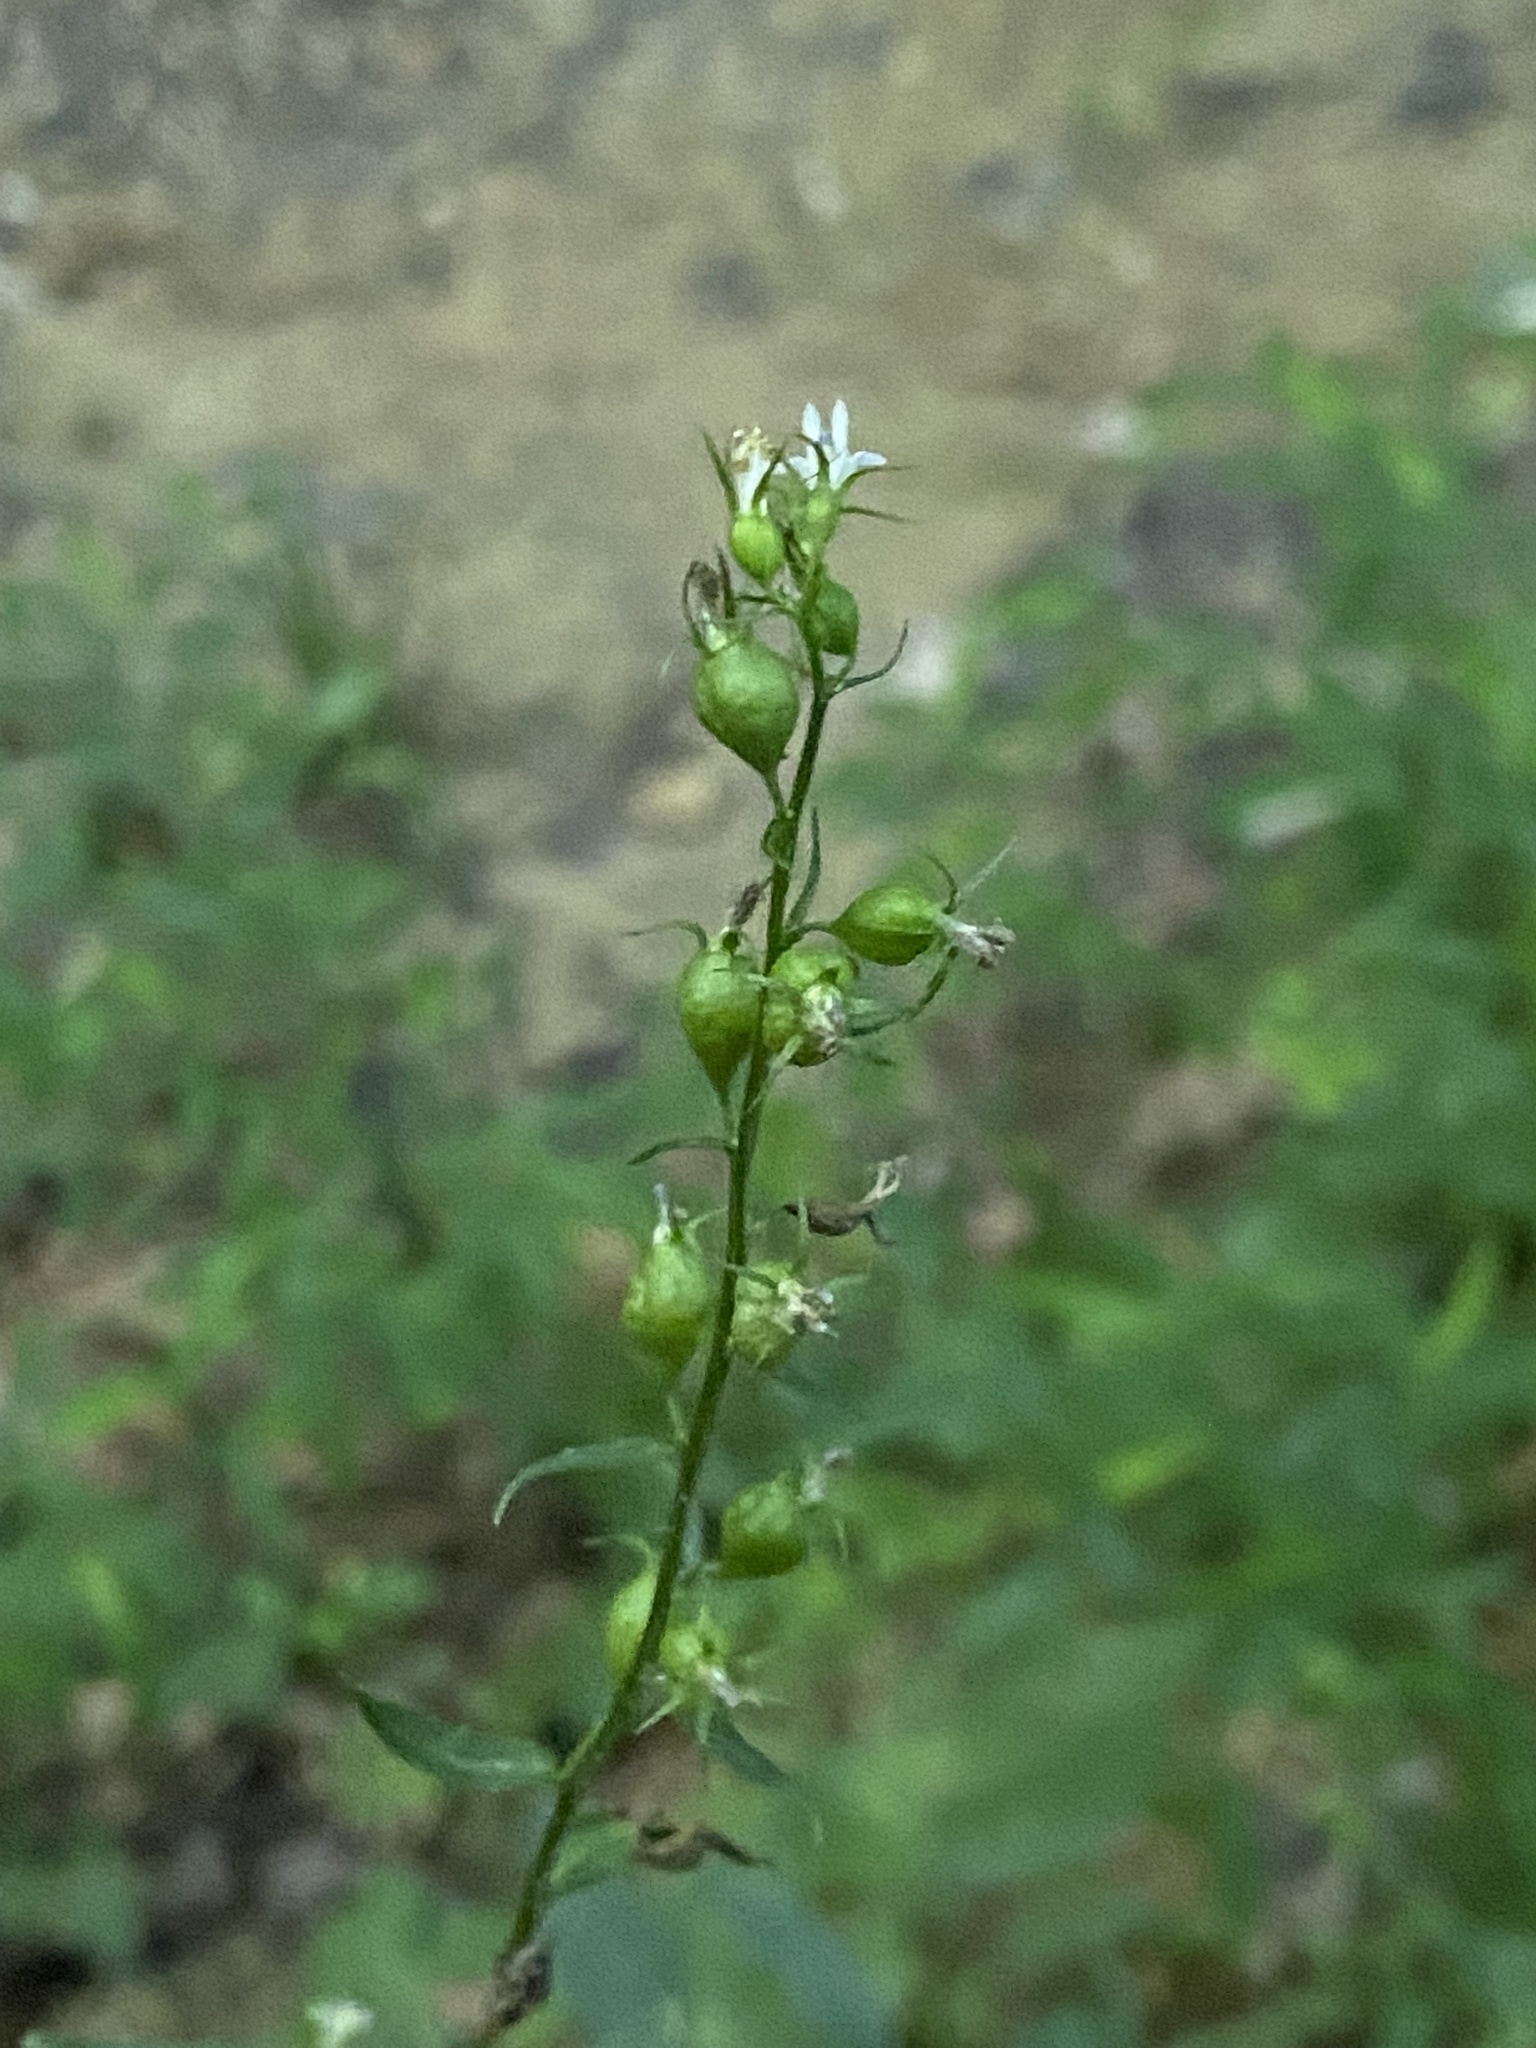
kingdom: Plantae
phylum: Tracheophyta
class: Magnoliopsida
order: Asterales
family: Campanulaceae
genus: Lobelia
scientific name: Lobelia inflata
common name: Indian tobacco
